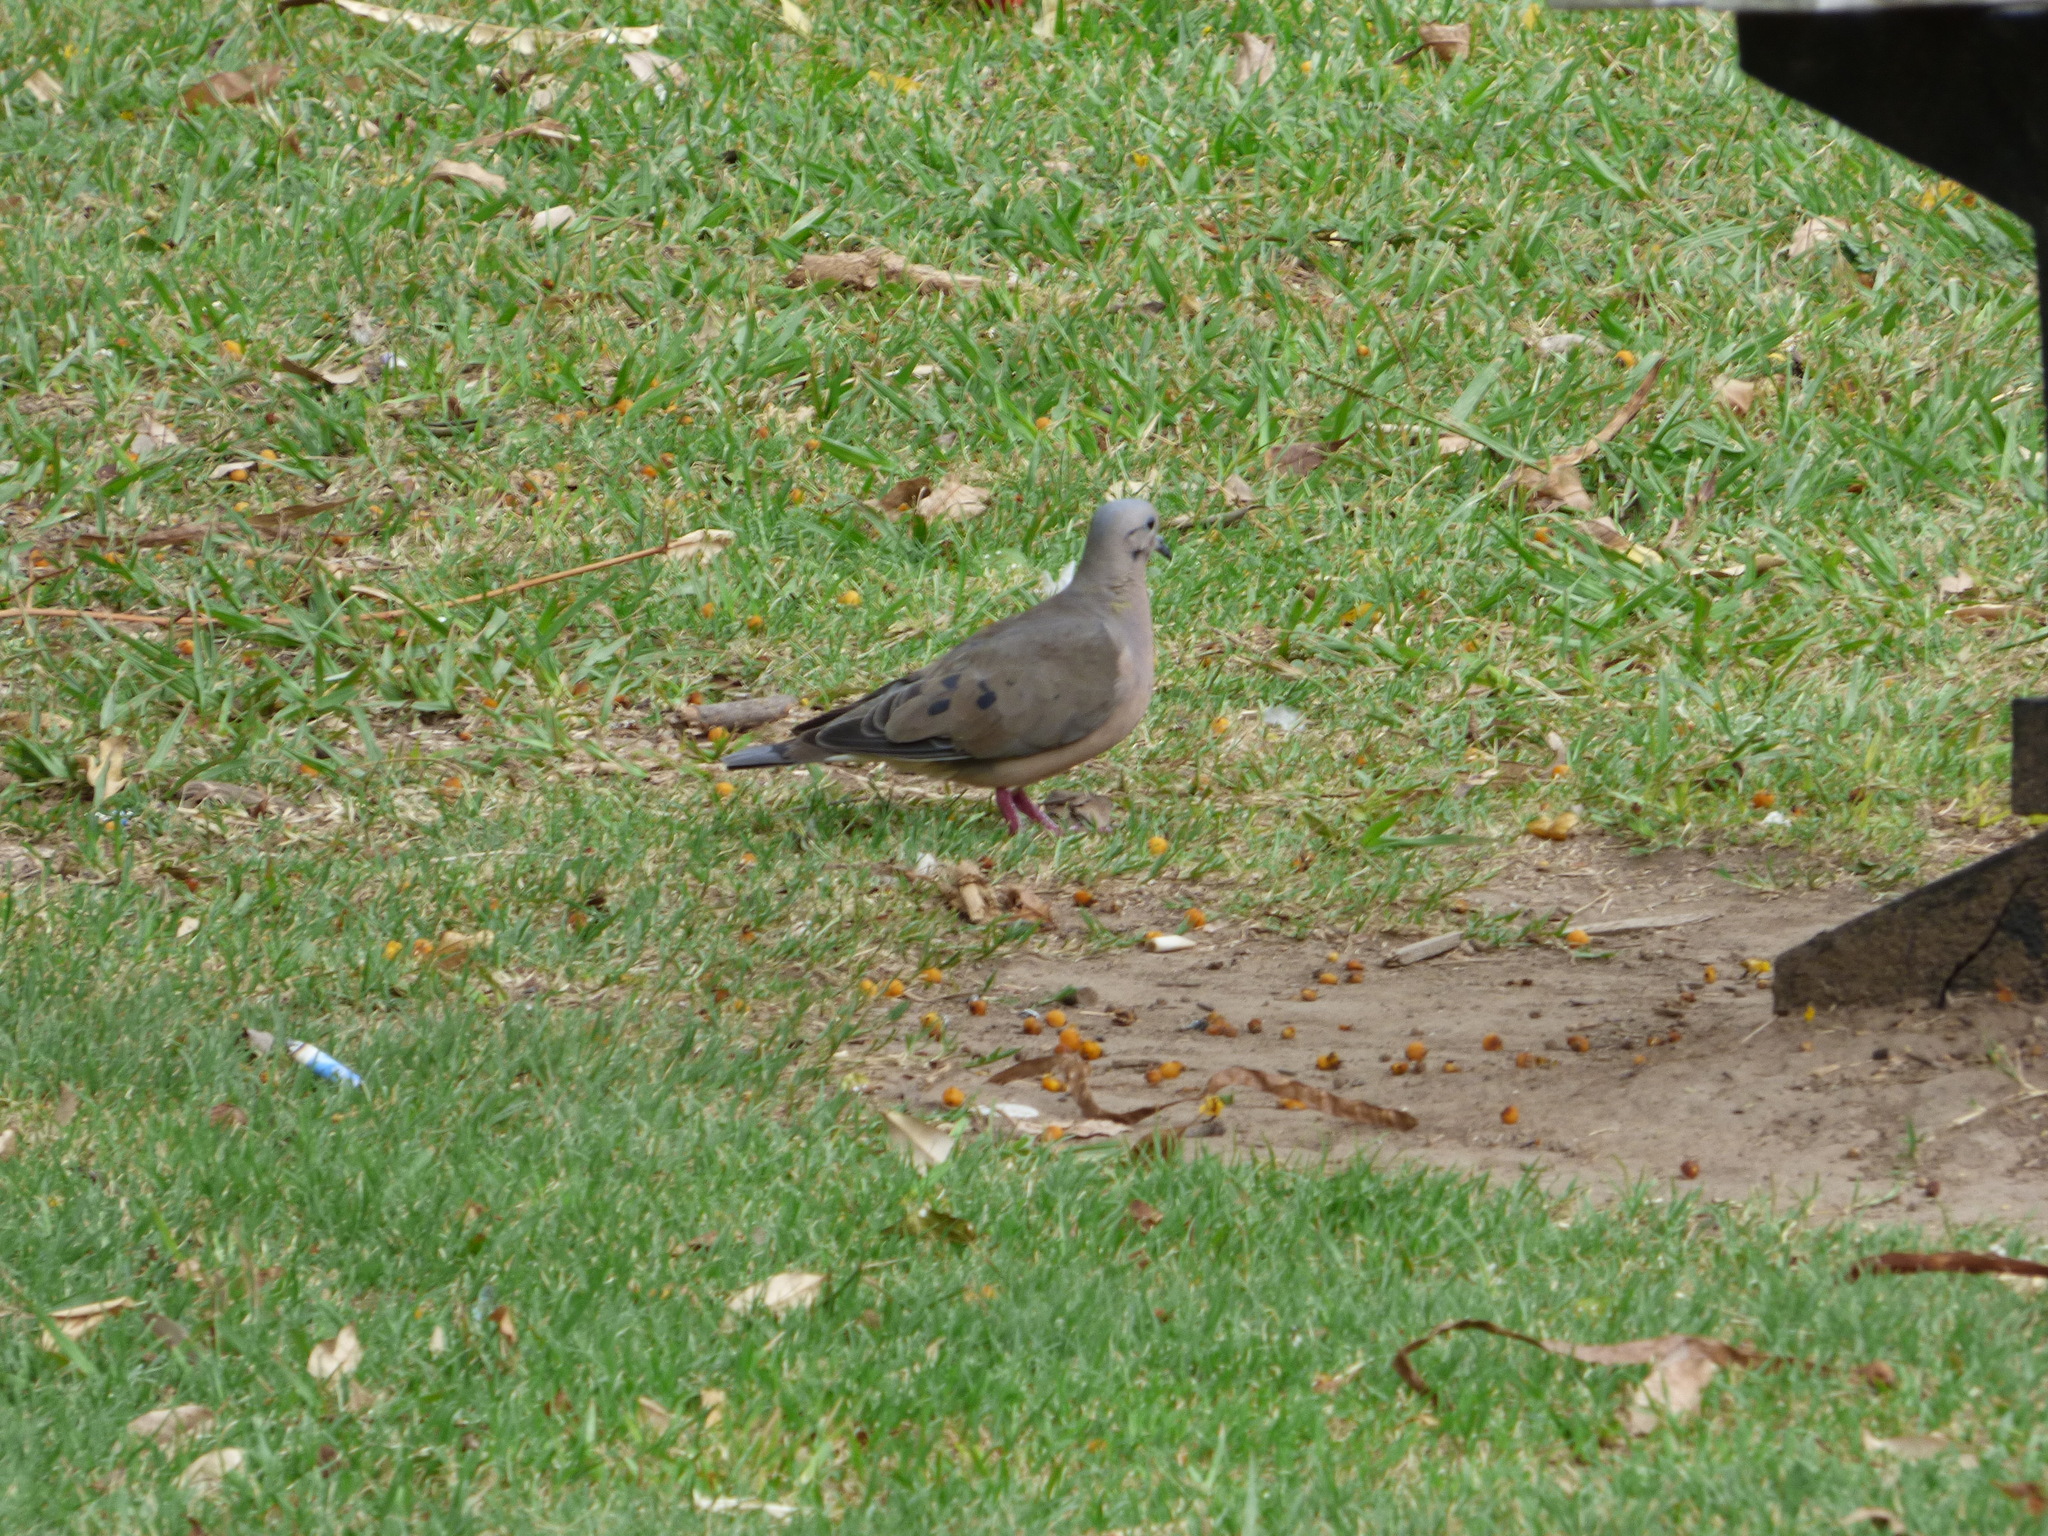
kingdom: Animalia
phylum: Chordata
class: Aves
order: Columbiformes
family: Columbidae
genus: Zenaida
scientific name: Zenaida auriculata
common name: Eared dove
